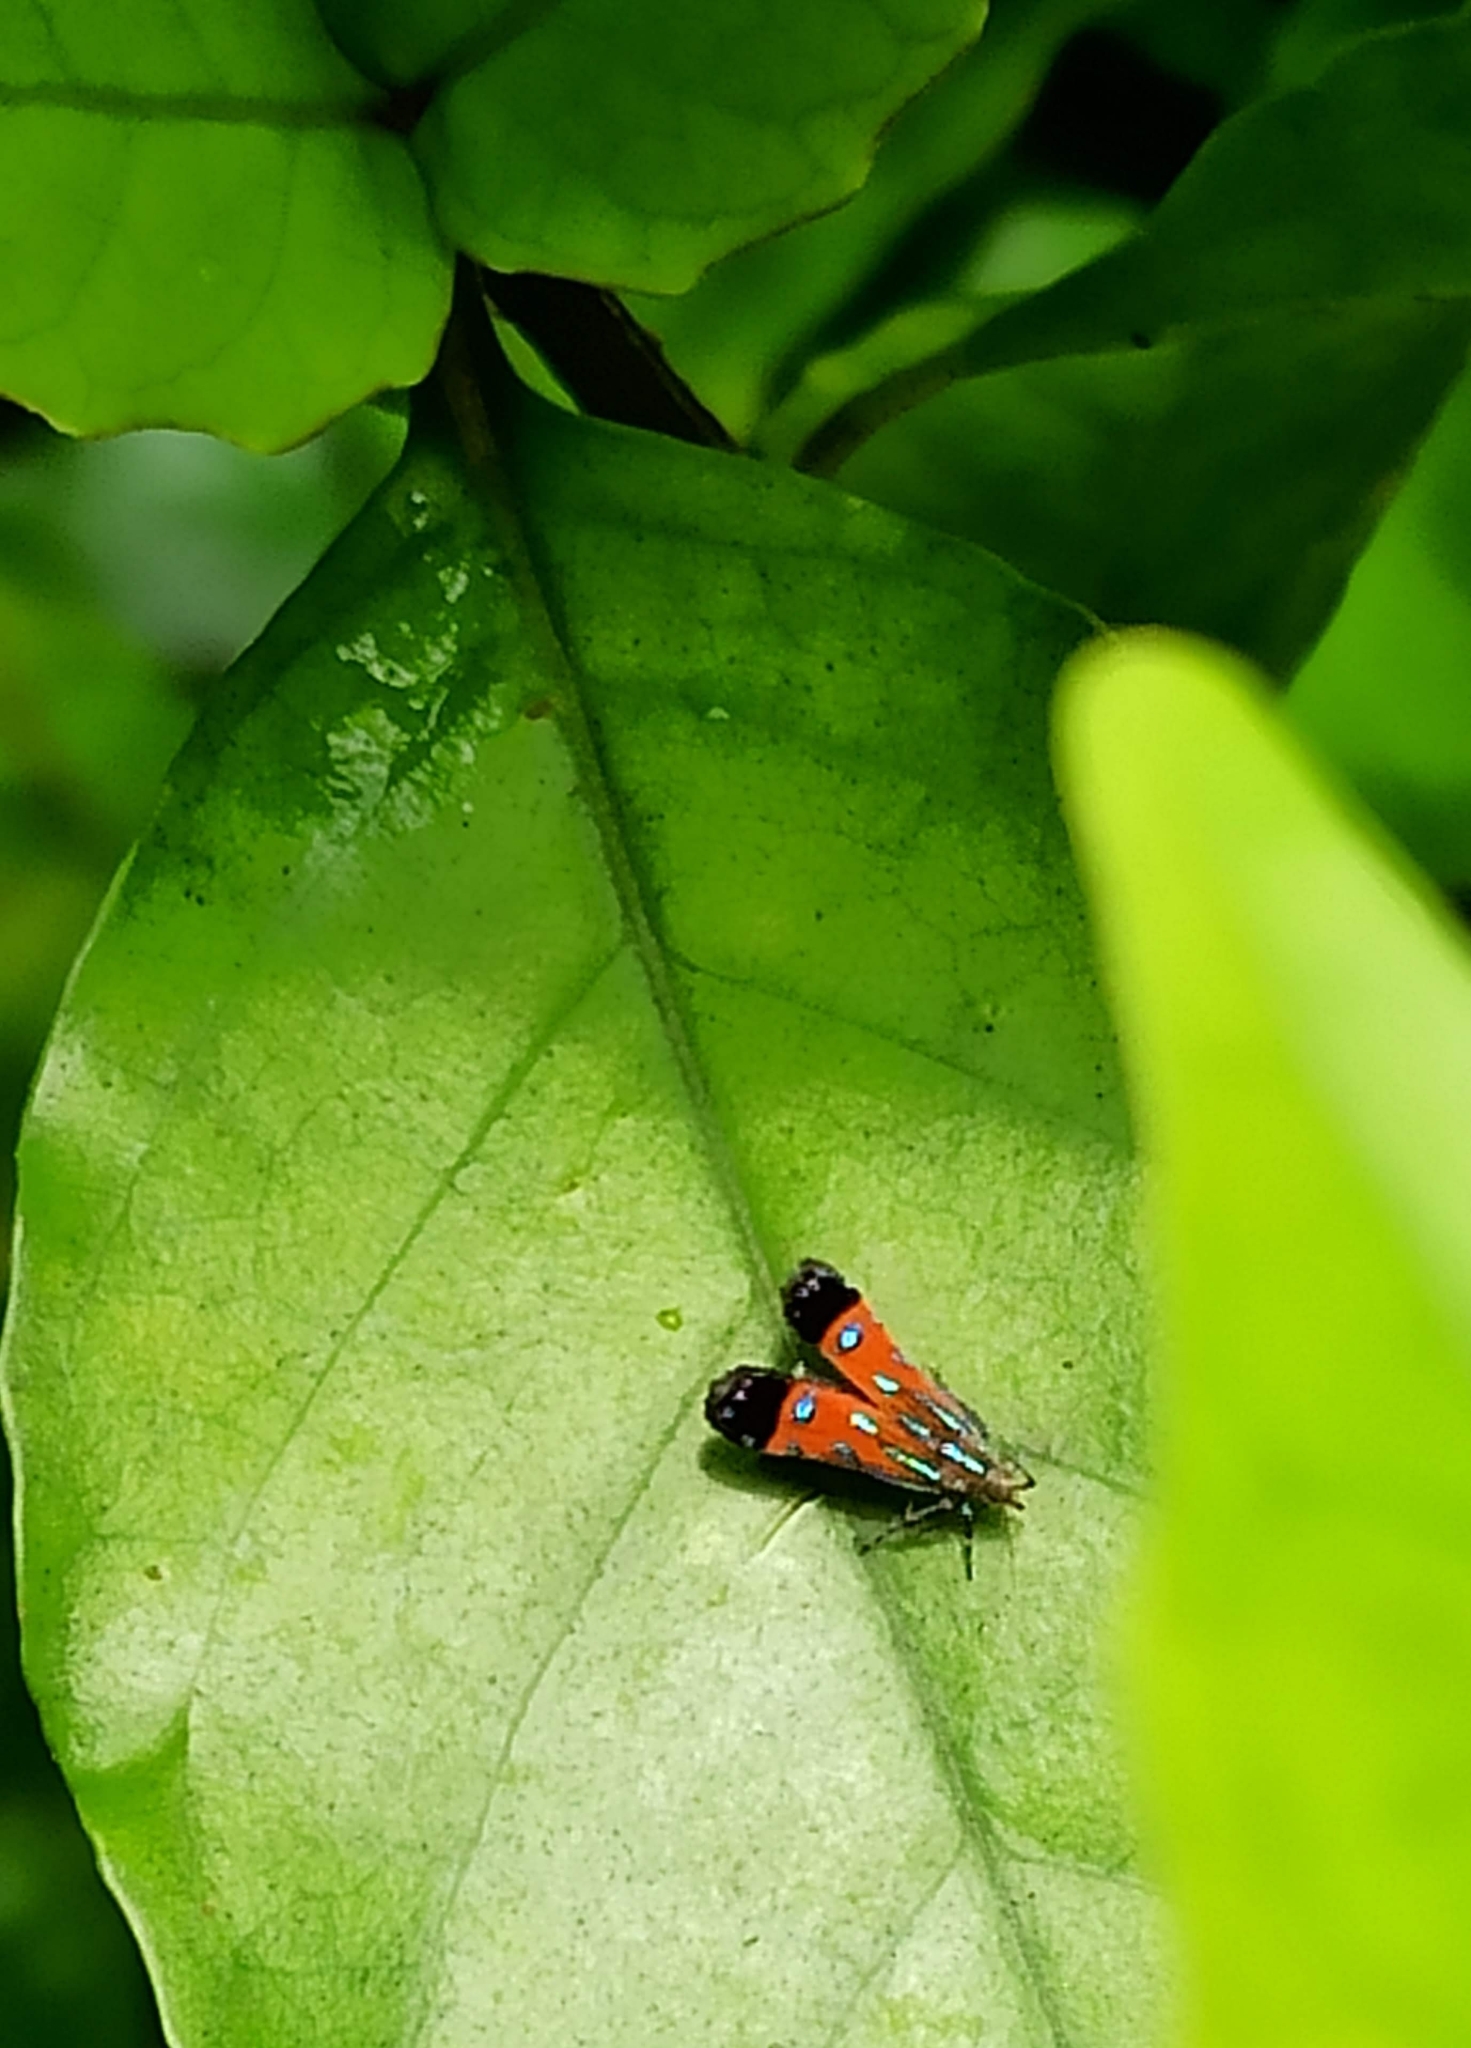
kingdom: Animalia
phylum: Arthropoda
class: Insecta
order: Lepidoptera
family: Gelechiidae
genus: Tricyanaula
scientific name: Tricyanaula aurantiaca
